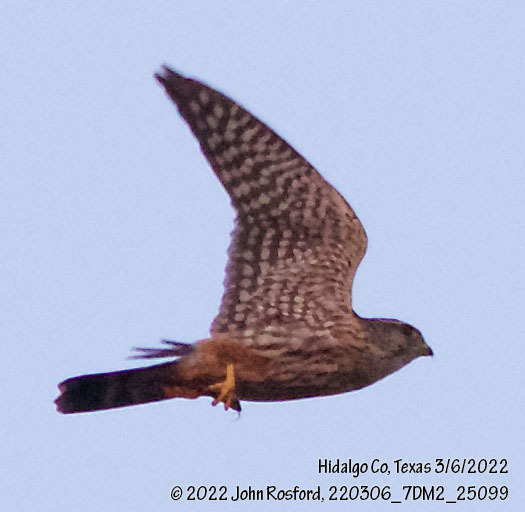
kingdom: Animalia
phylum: Chordata
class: Aves
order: Falconiformes
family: Falconidae
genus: Falco
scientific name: Falco columbarius
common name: Merlin
